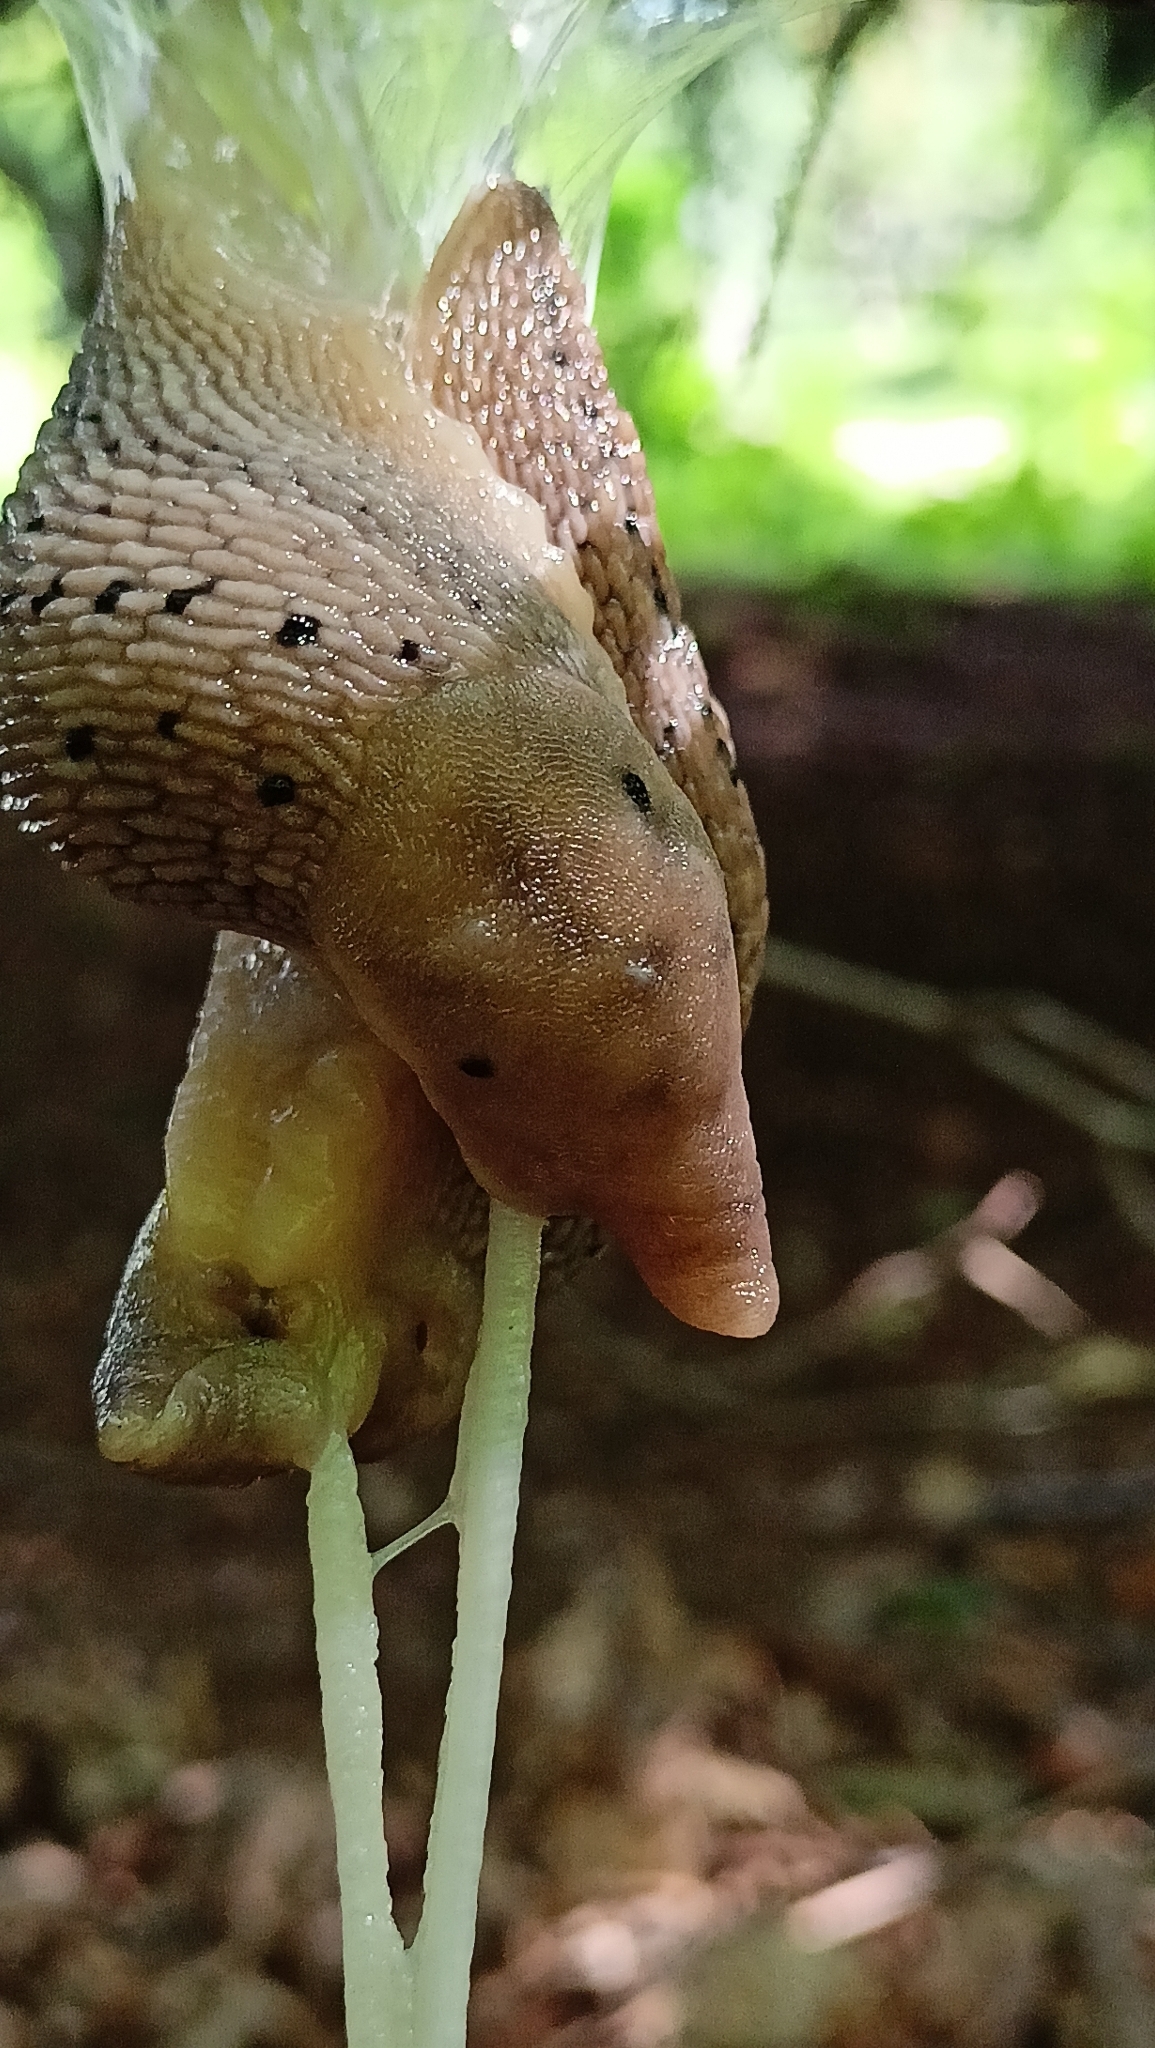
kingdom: Animalia
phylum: Mollusca
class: Gastropoda
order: Stylommatophora
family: Limacidae
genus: Limax
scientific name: Limax redii
